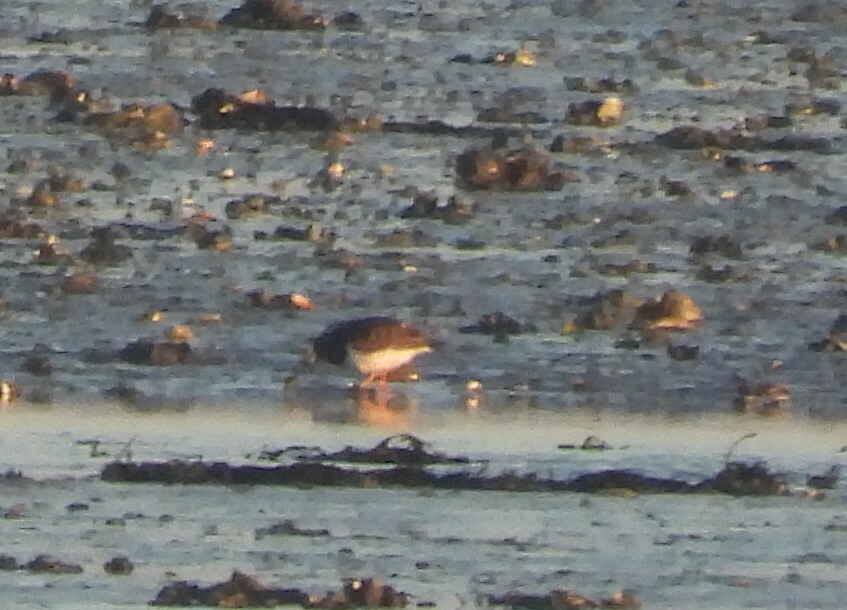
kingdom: Animalia
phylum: Chordata
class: Aves
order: Charadriiformes
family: Scolopacidae
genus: Arenaria
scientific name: Arenaria interpres
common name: Ruddy turnstone
